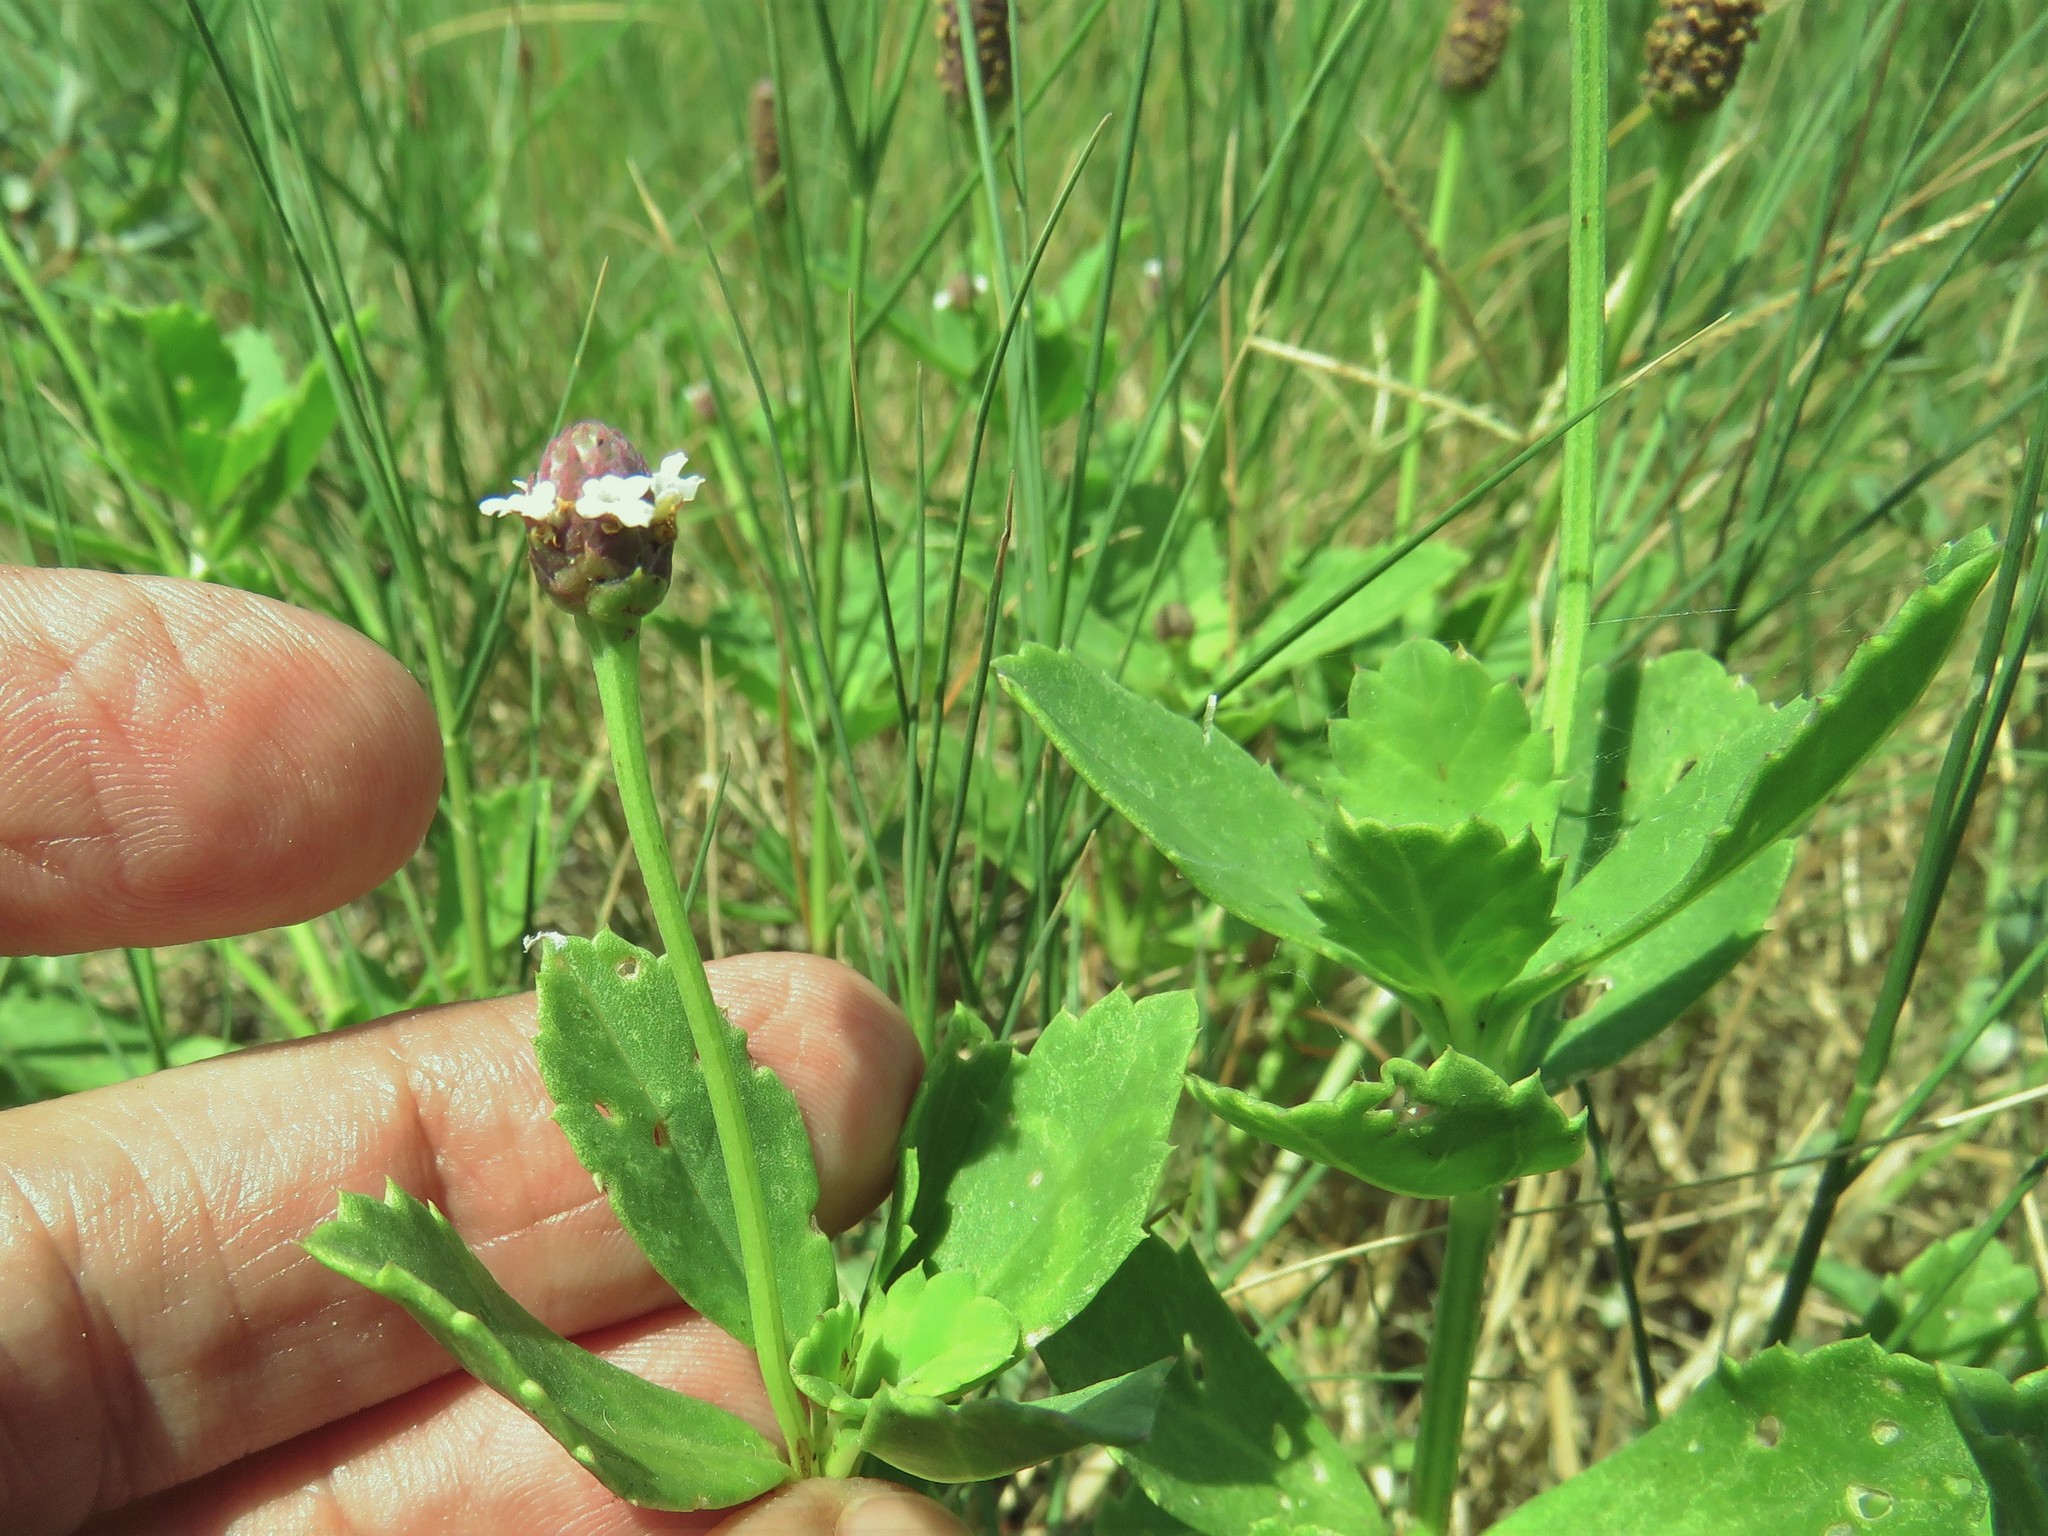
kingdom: Plantae
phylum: Tracheophyta
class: Magnoliopsida
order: Lamiales
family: Verbenaceae
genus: Phyla
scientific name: Phyla nodiflora
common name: Frogfruit
